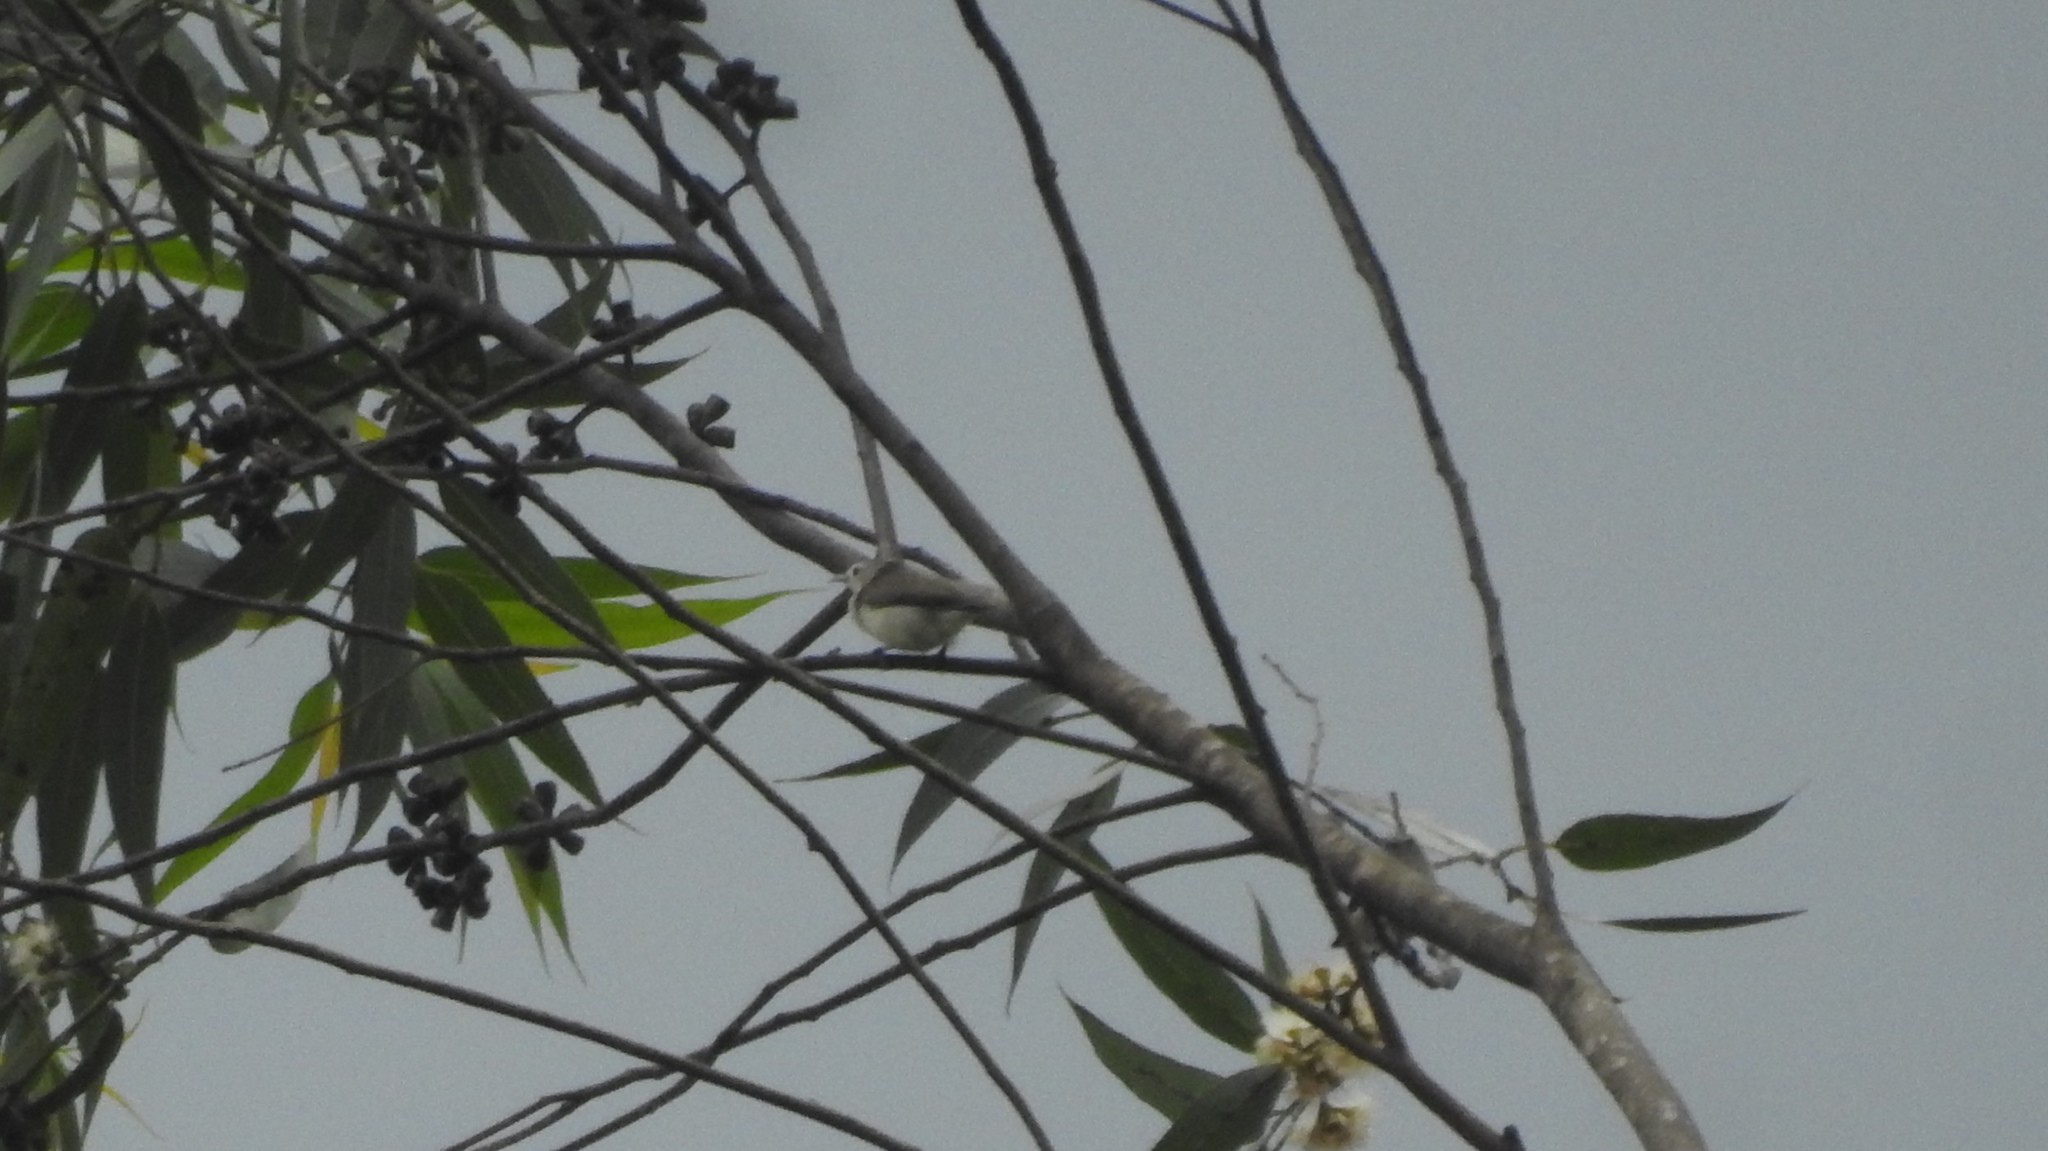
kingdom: Animalia
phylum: Chordata
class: Aves
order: Passeriformes
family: Dicaeidae
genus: Dicaeum
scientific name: Dicaeum erythrorhynchos
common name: Pale-billed flowerpecker
